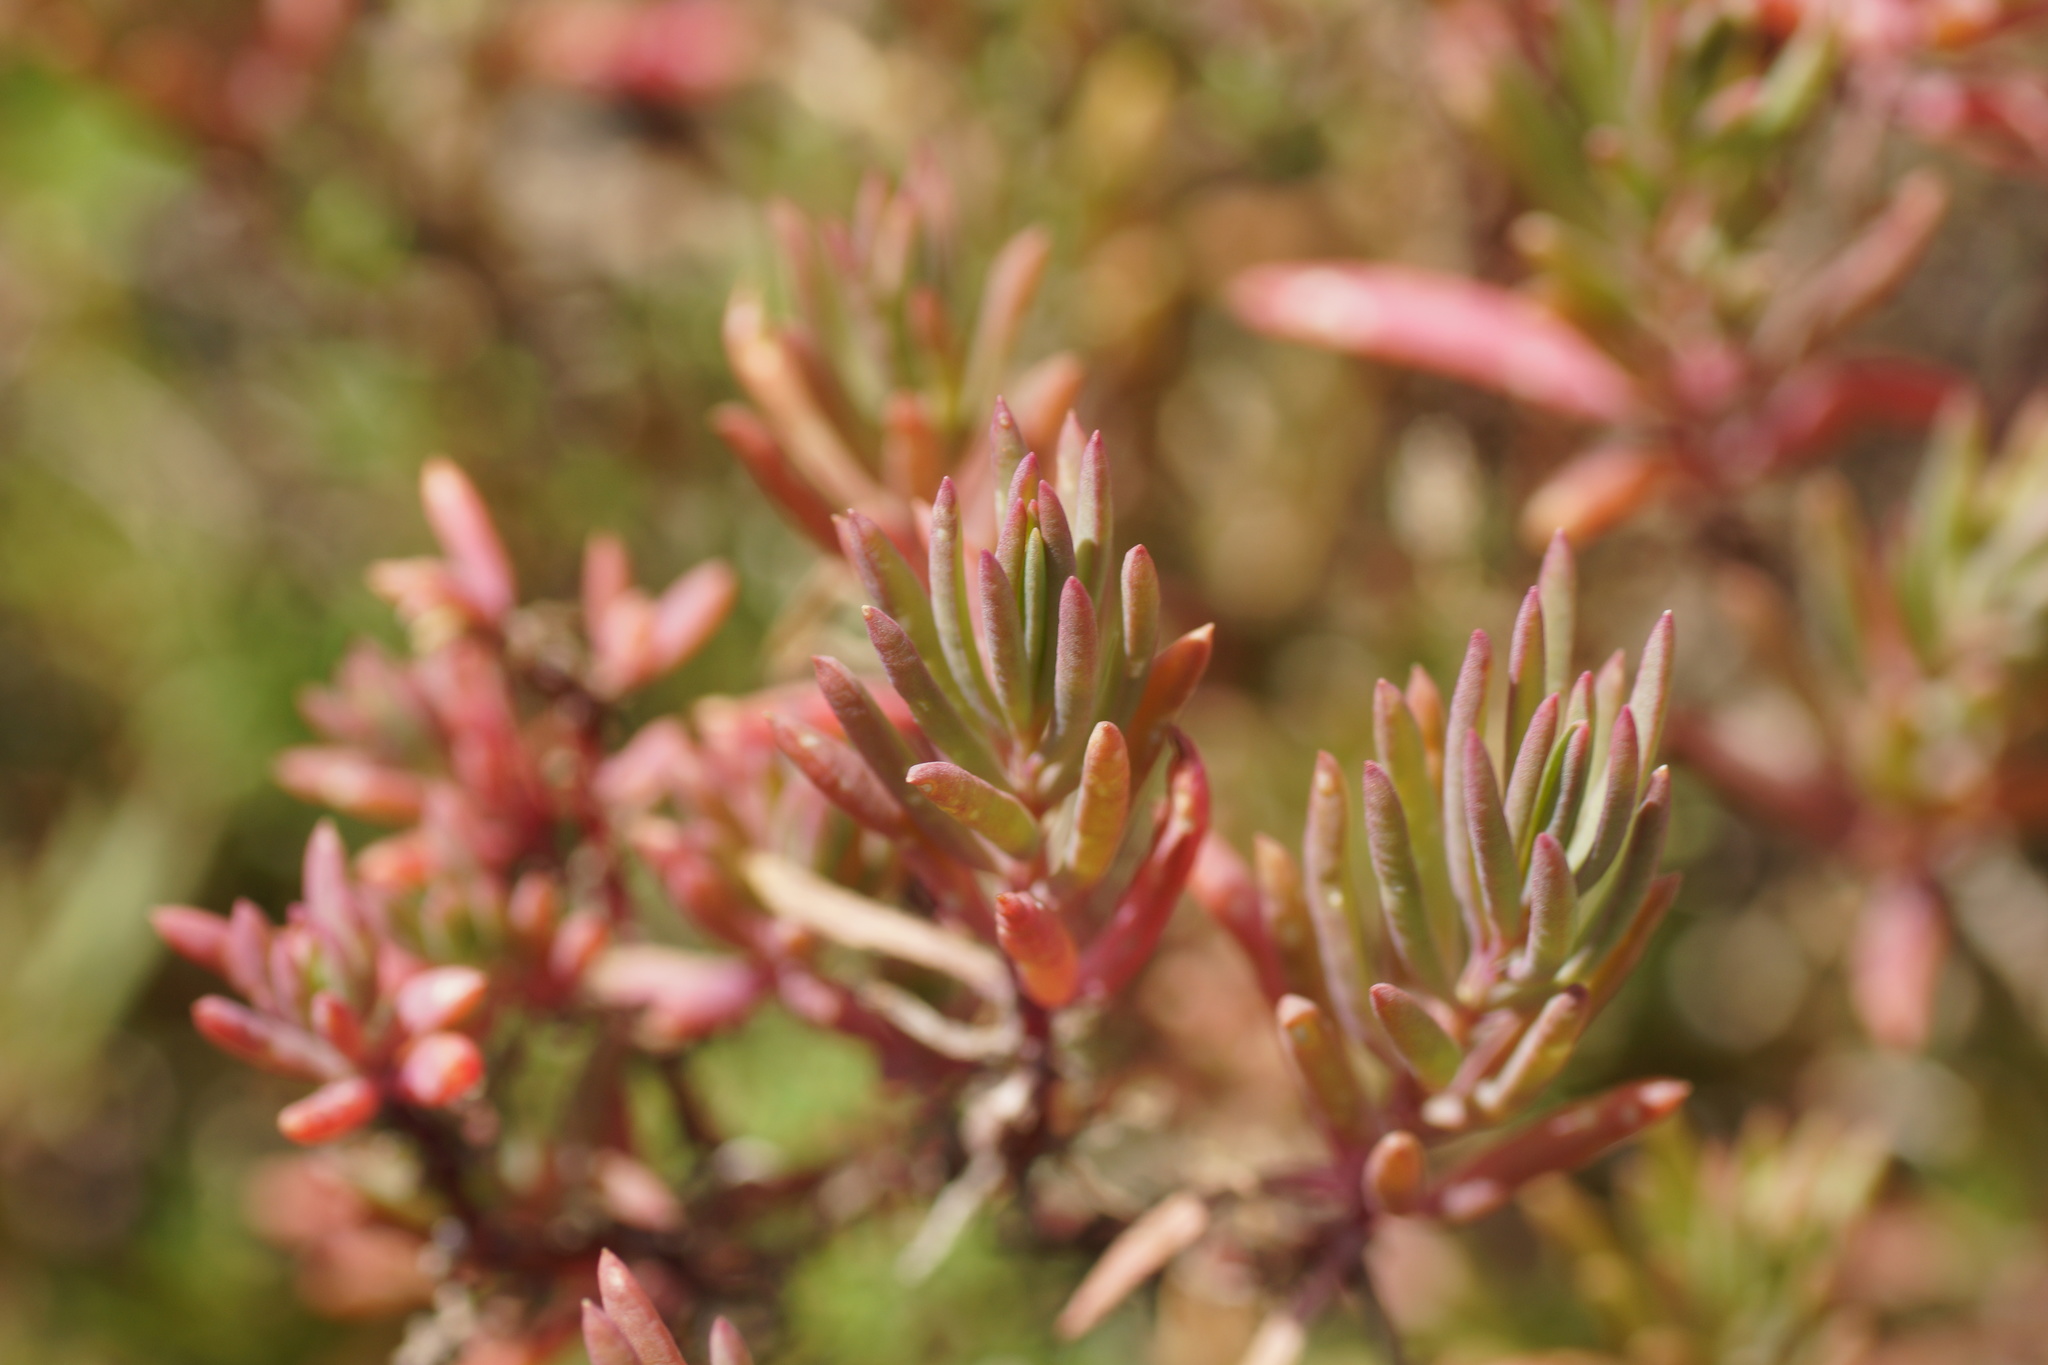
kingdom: Plantae
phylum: Tracheophyta
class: Magnoliopsida
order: Caryophyllales
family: Amaranthaceae
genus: Suaeda
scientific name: Suaeda australis
